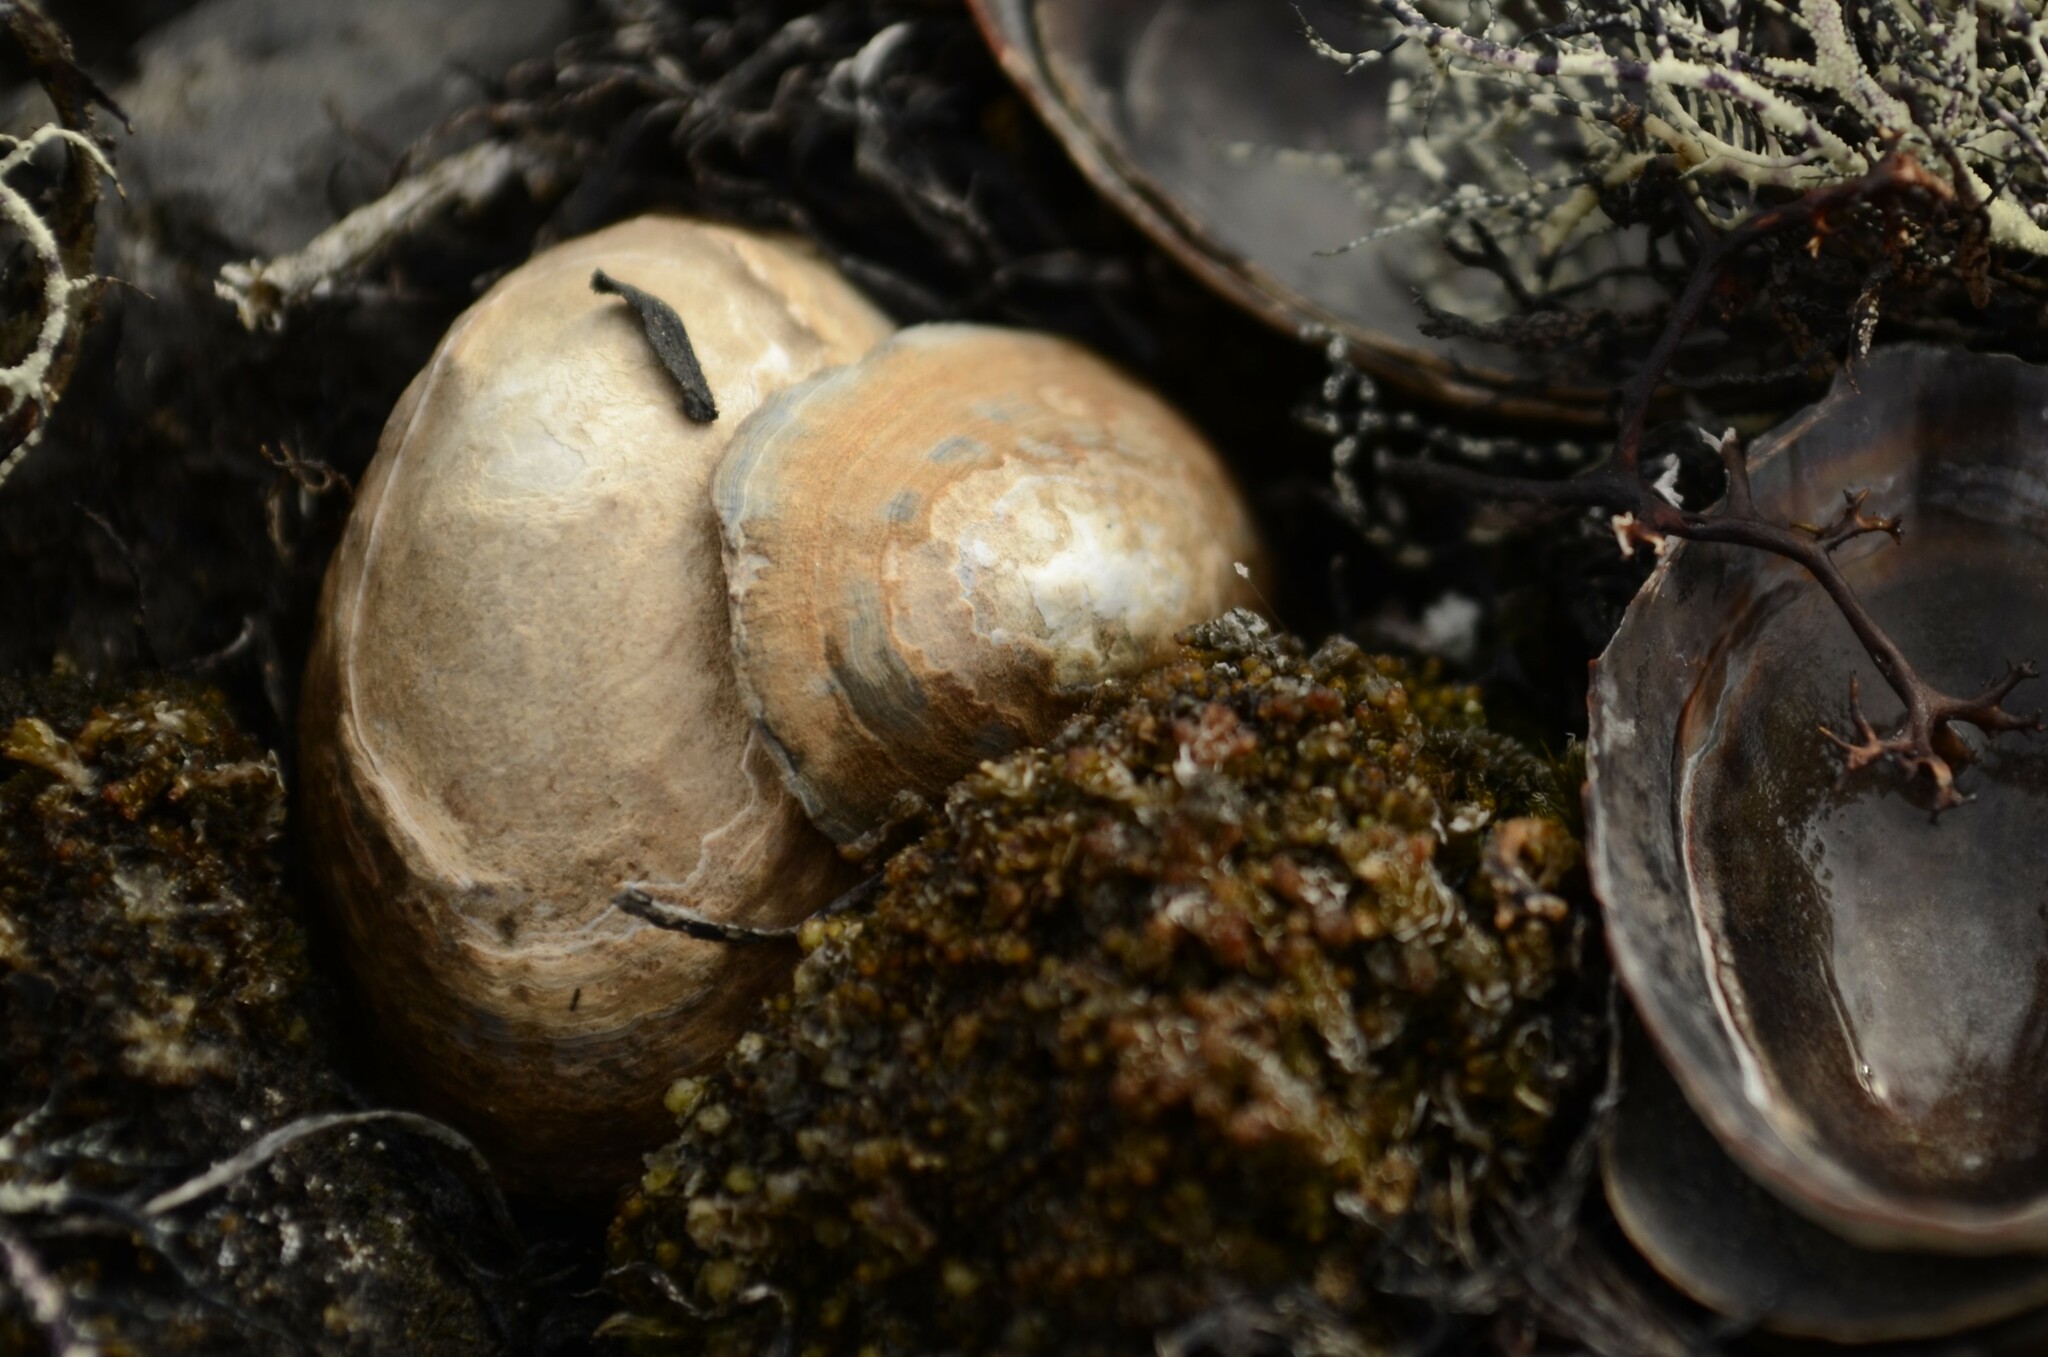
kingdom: Animalia
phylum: Mollusca
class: Gastropoda
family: Nacellidae
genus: Nacella
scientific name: Nacella concinna
